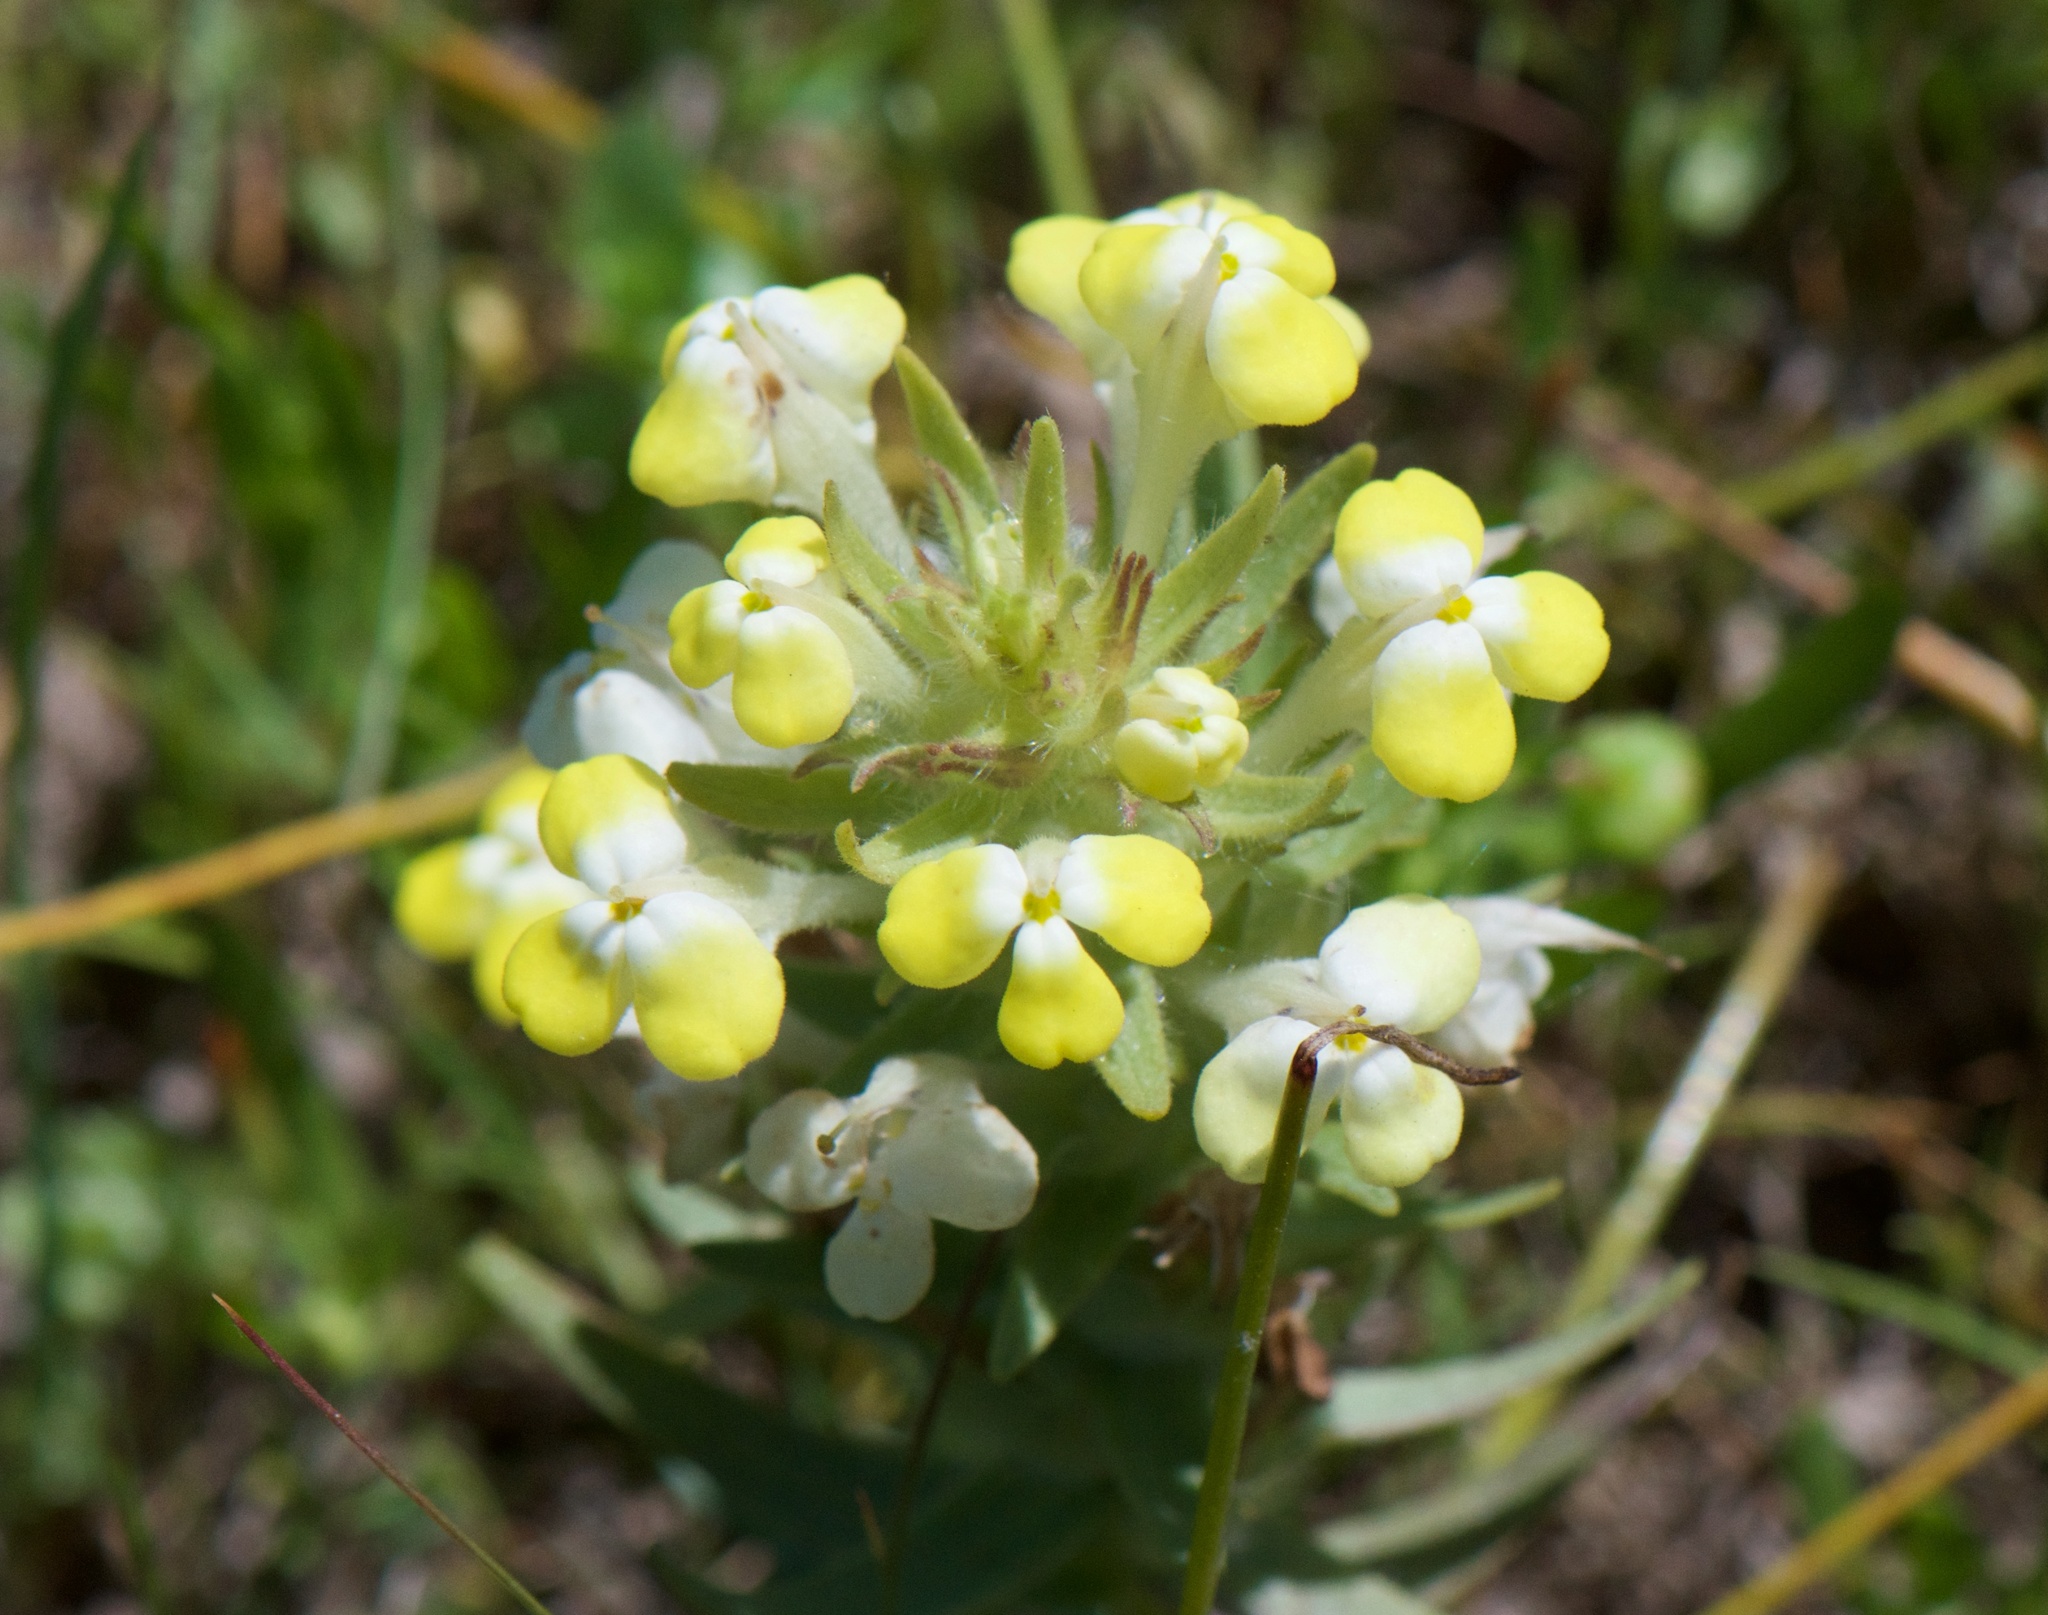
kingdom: Plantae
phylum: Tracheophyta
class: Magnoliopsida
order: Lamiales
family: Orobanchaceae
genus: Castilleja
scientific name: Castilleja campestris
